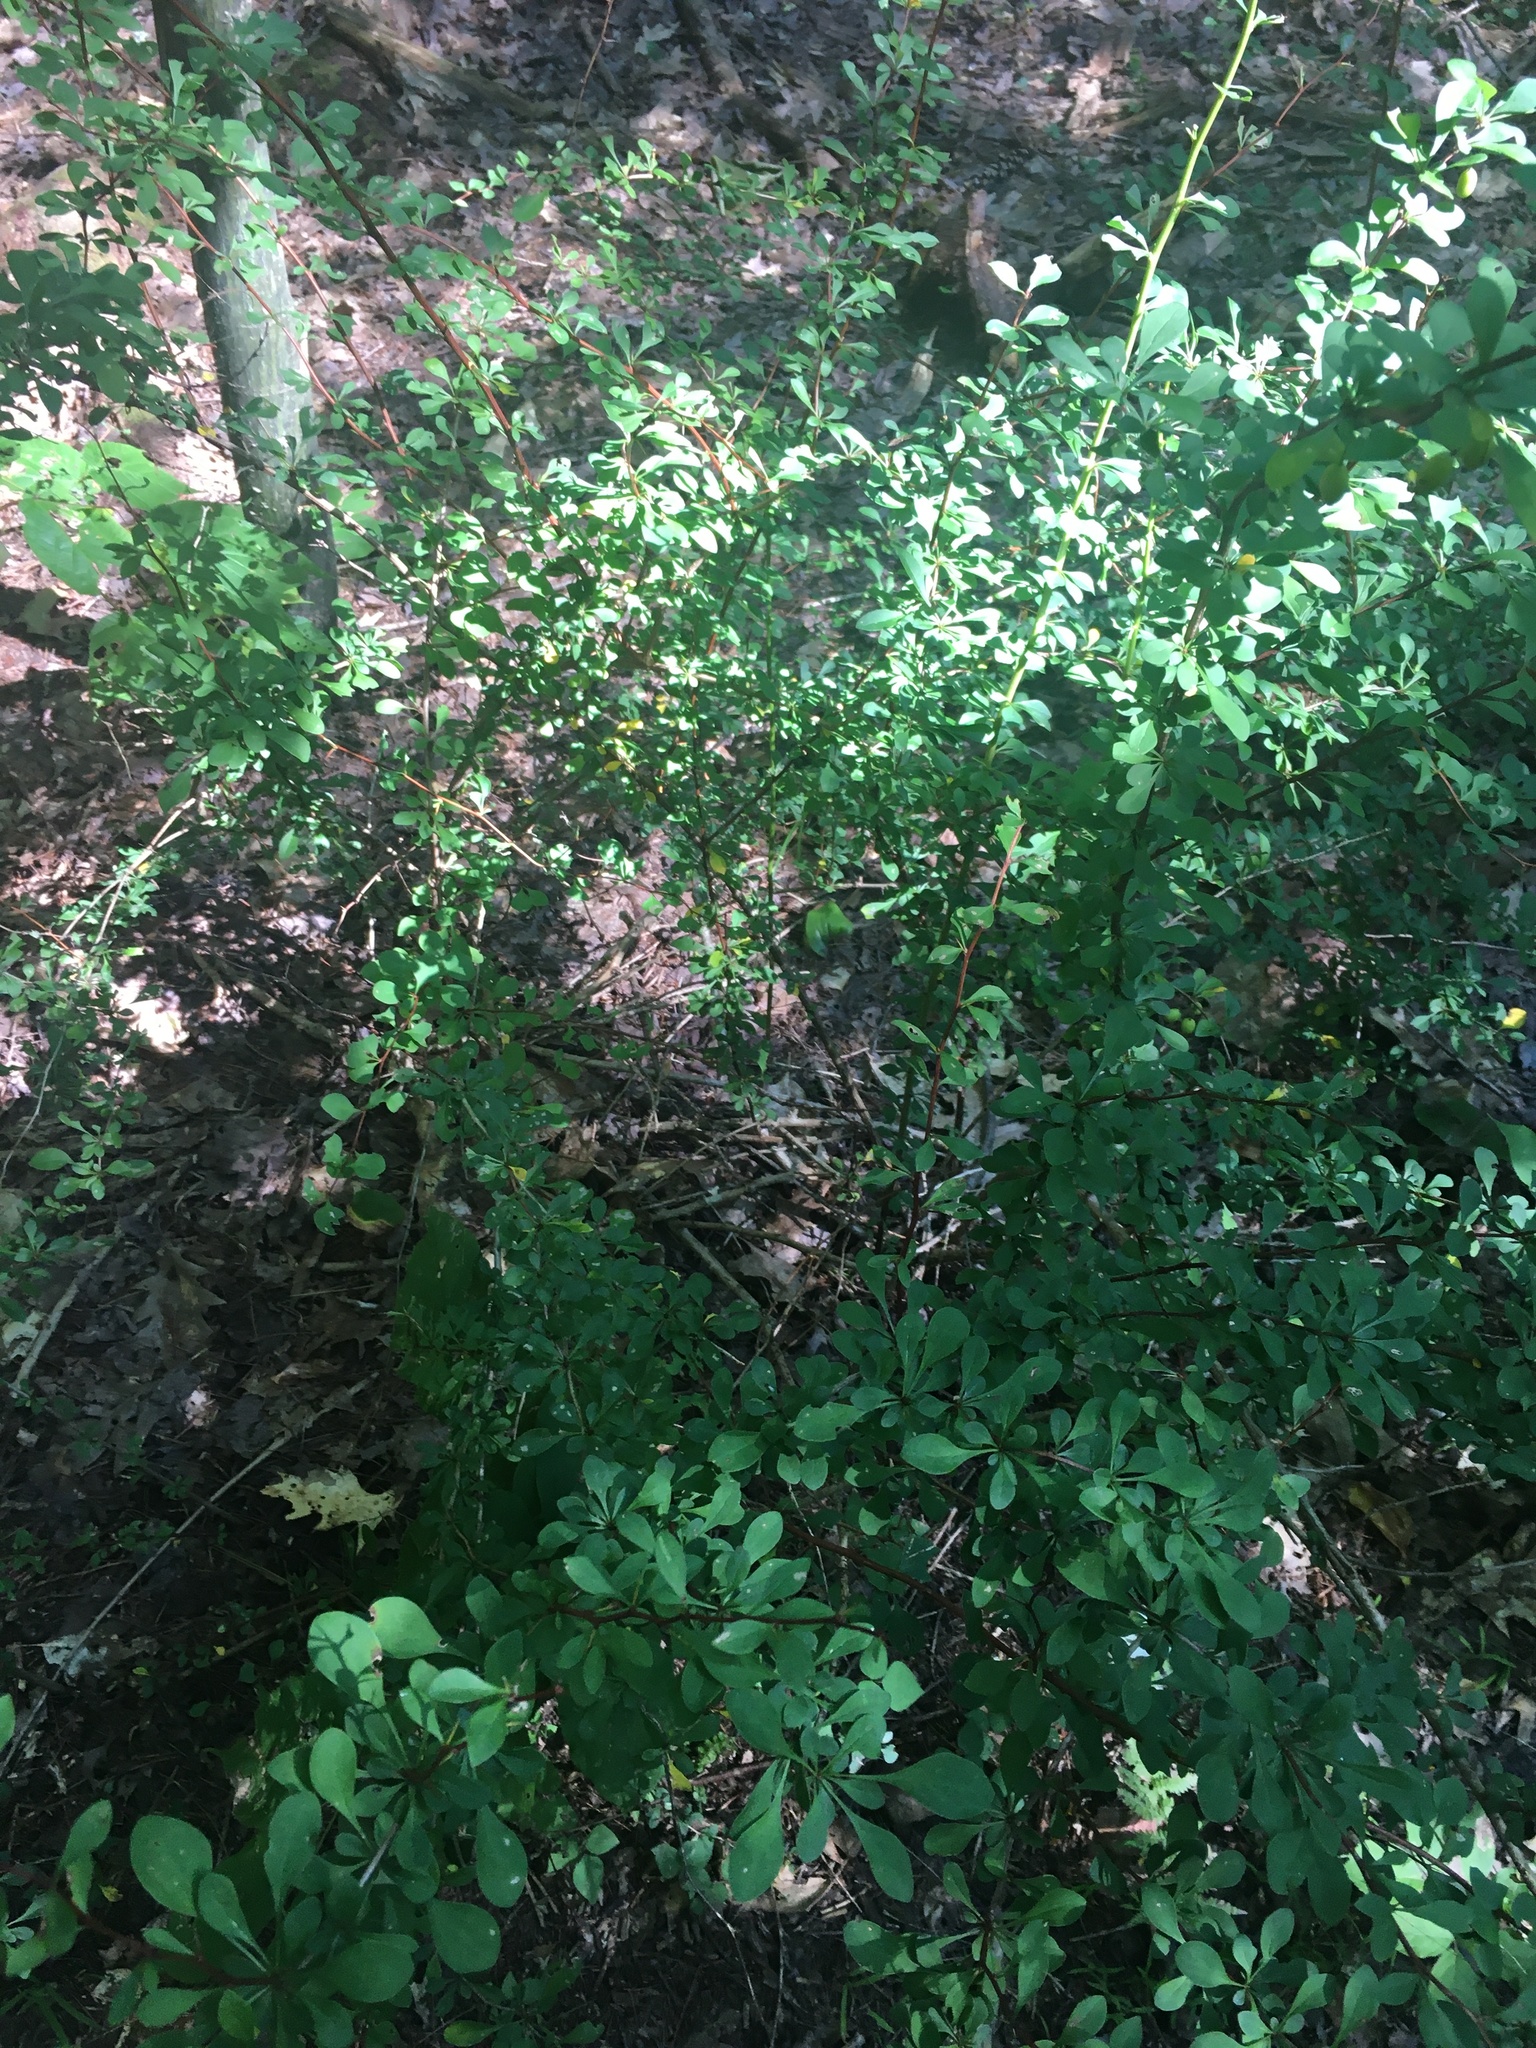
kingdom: Plantae
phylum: Tracheophyta
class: Magnoliopsida
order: Ranunculales
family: Berberidaceae
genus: Berberis
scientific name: Berberis thunbergii
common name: Japanese barberry
